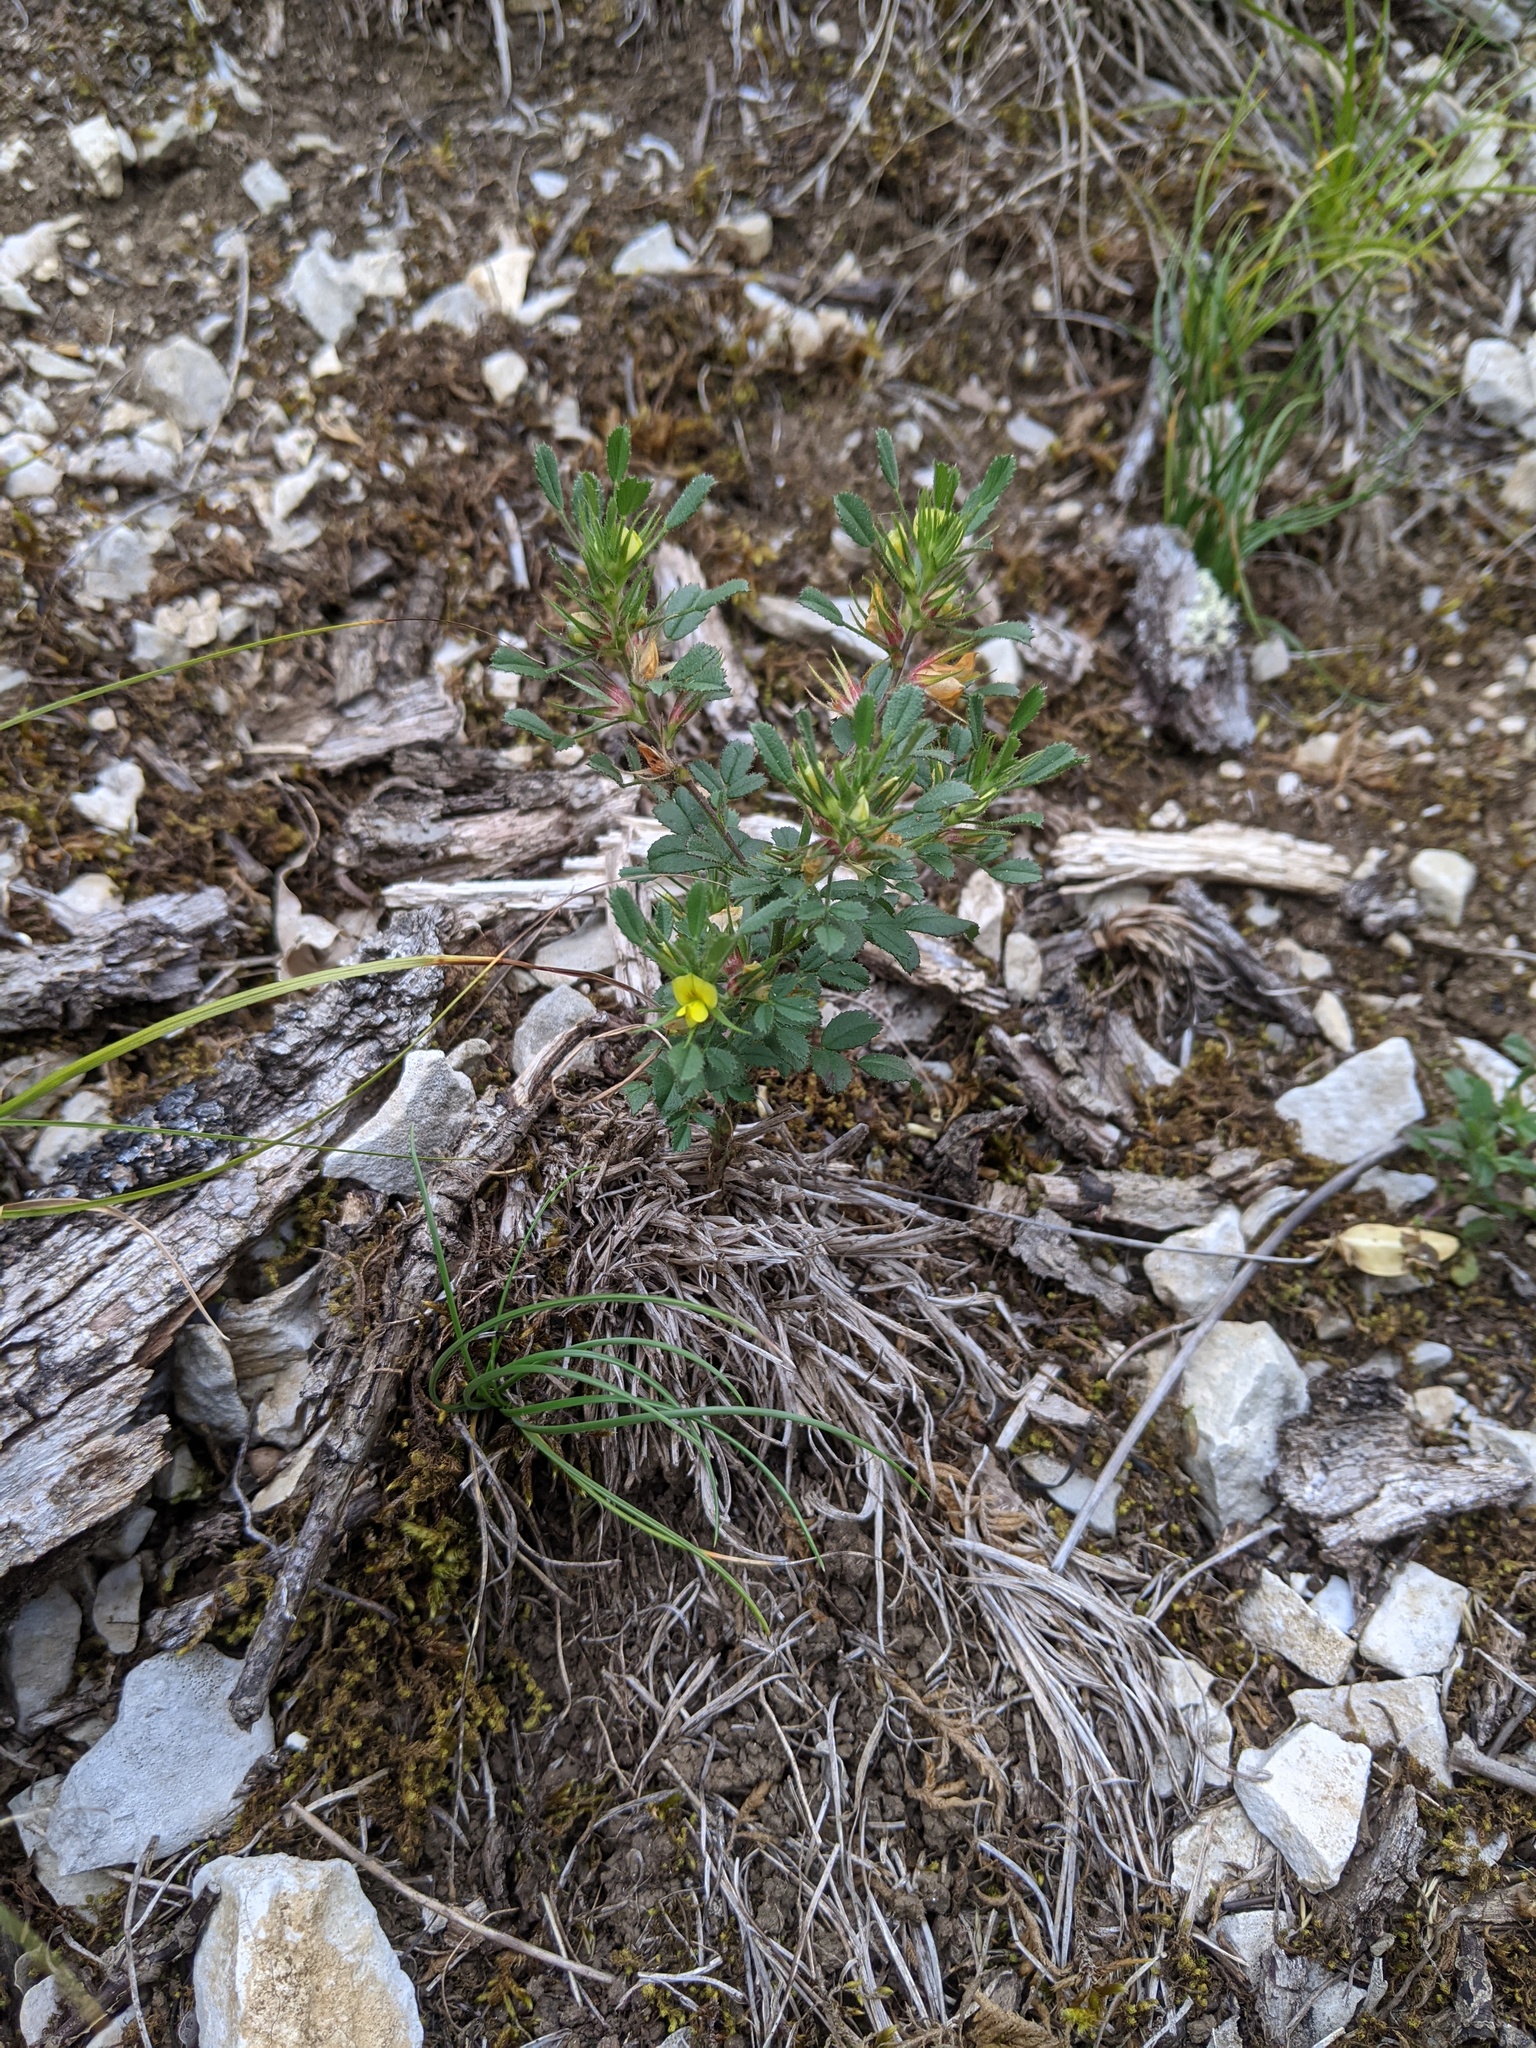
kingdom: Plantae
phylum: Tracheophyta
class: Magnoliopsida
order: Fabales
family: Fabaceae
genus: Ononis
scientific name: Ononis pusilla
